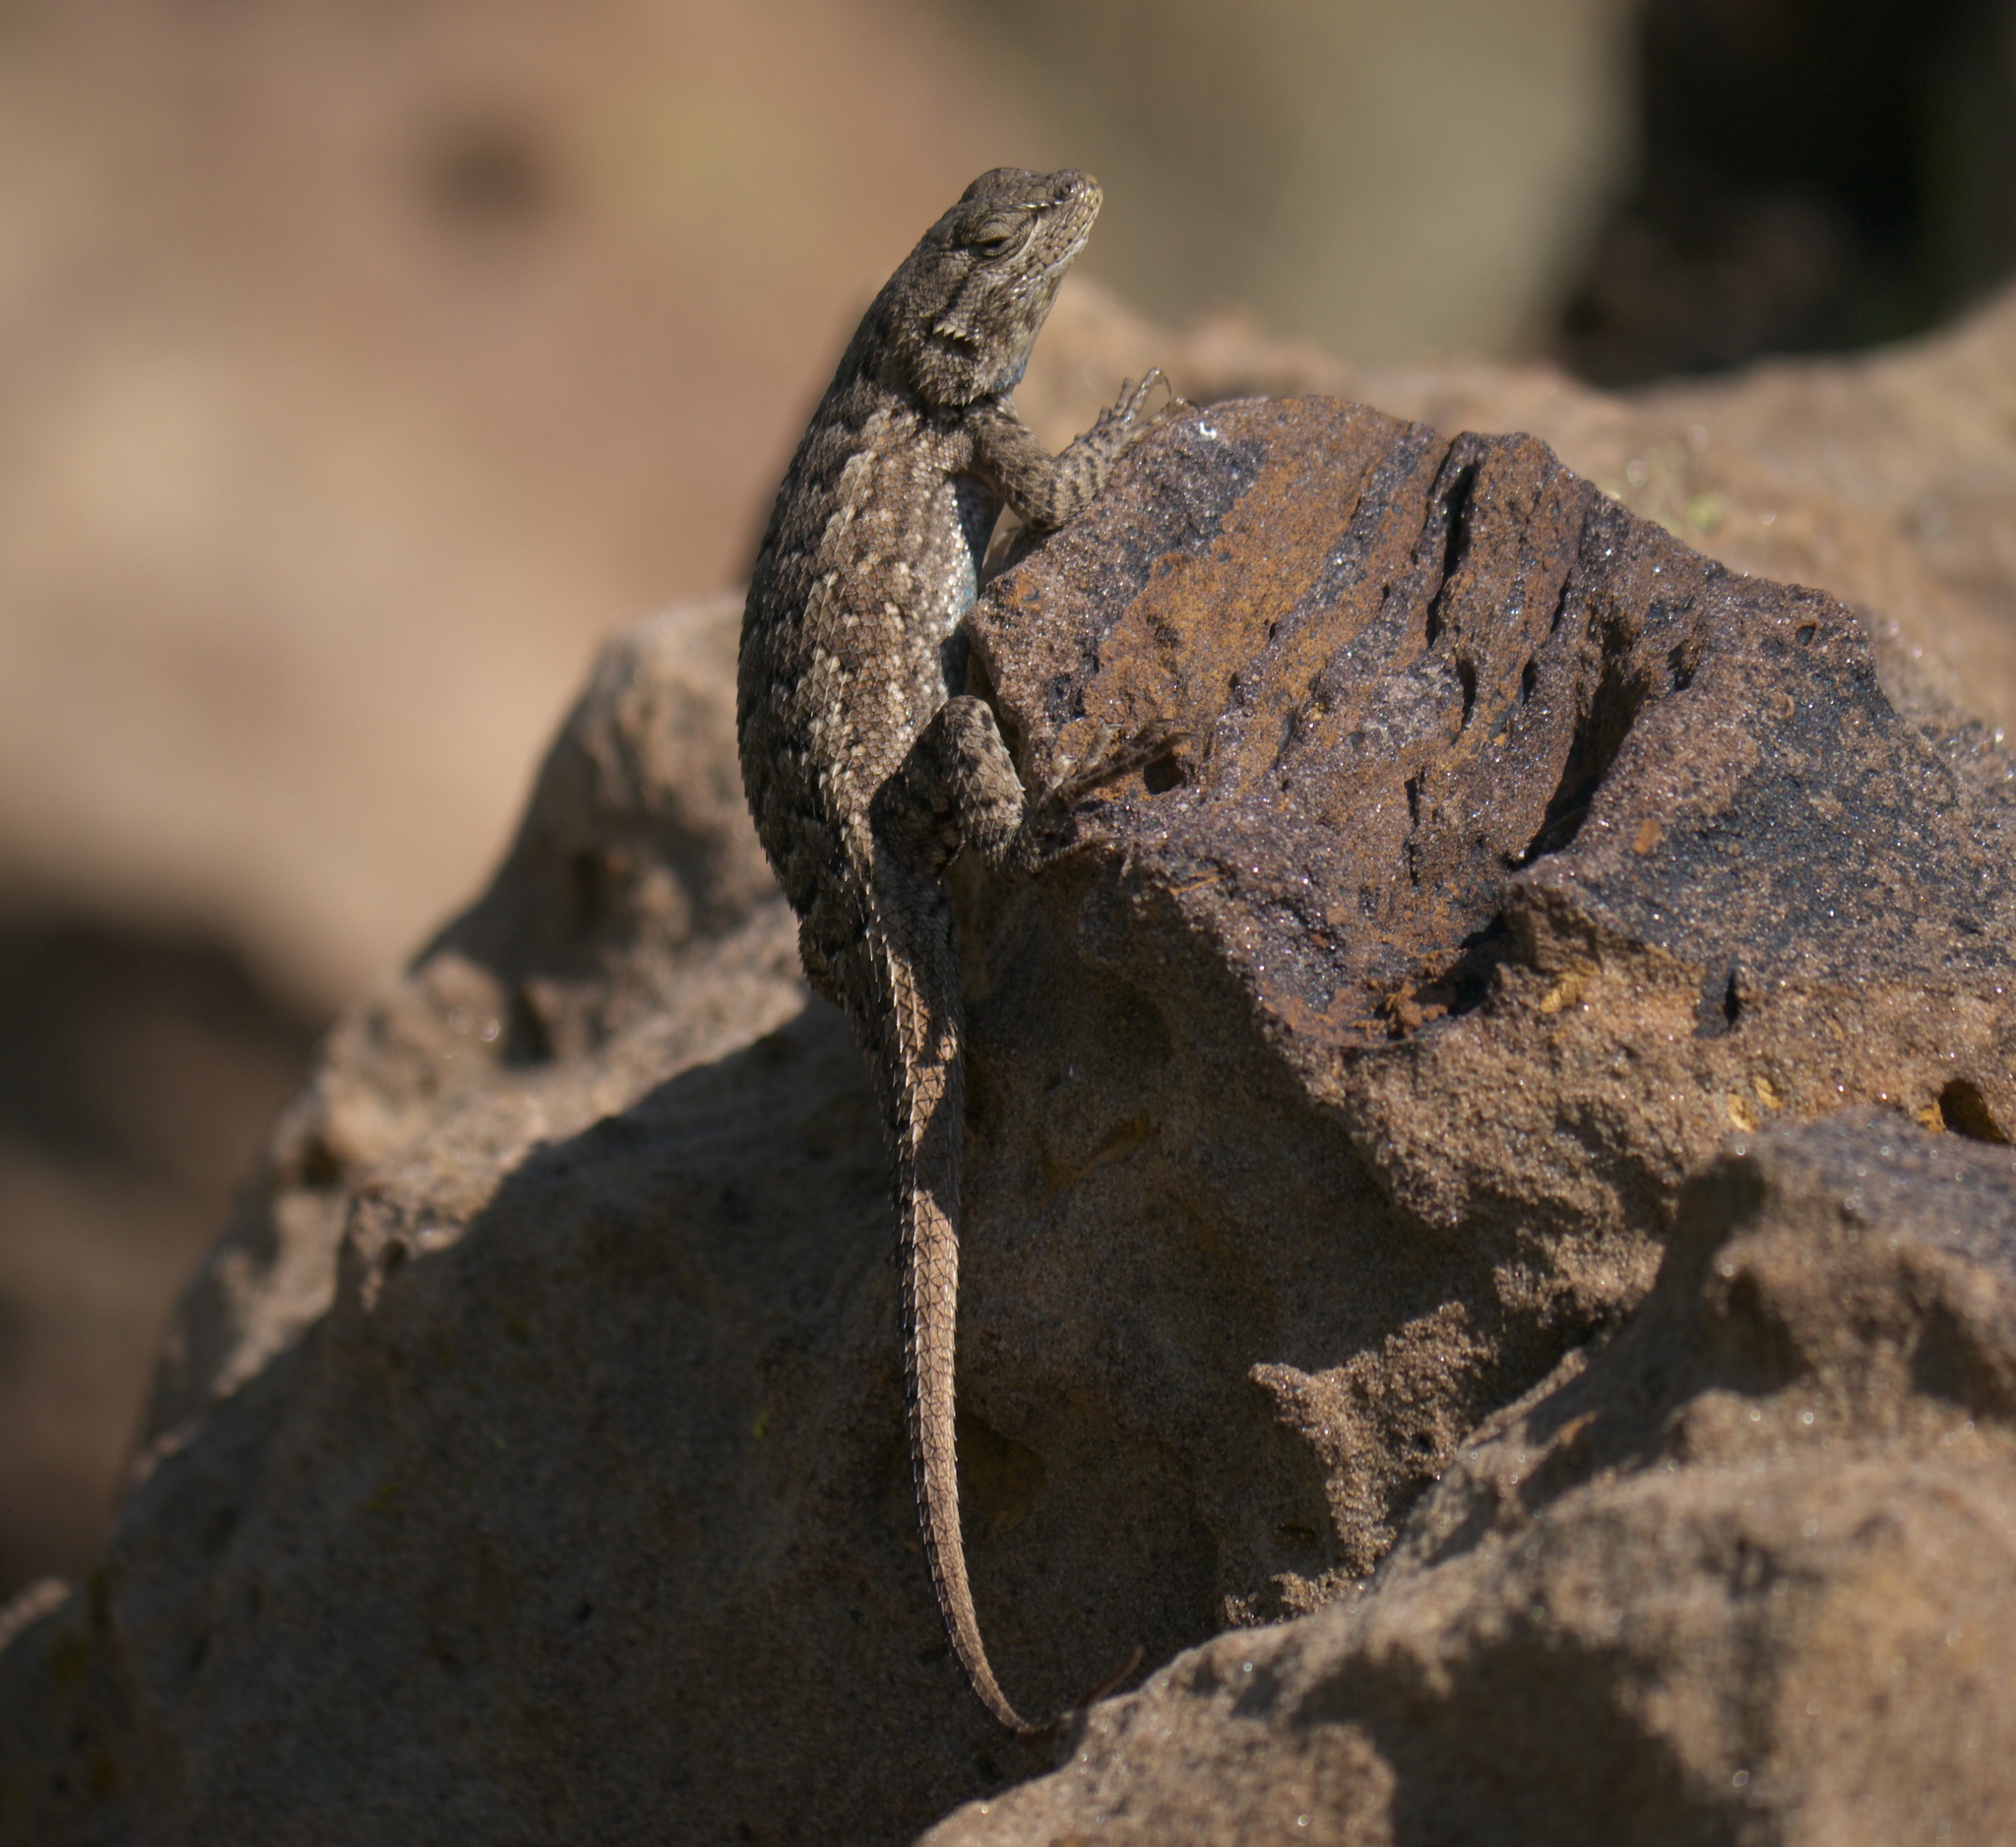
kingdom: Animalia
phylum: Chordata
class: Squamata
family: Phrynosomatidae
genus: Sceloporus
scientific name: Sceloporus consobrinus
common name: Southern prairie lizard
